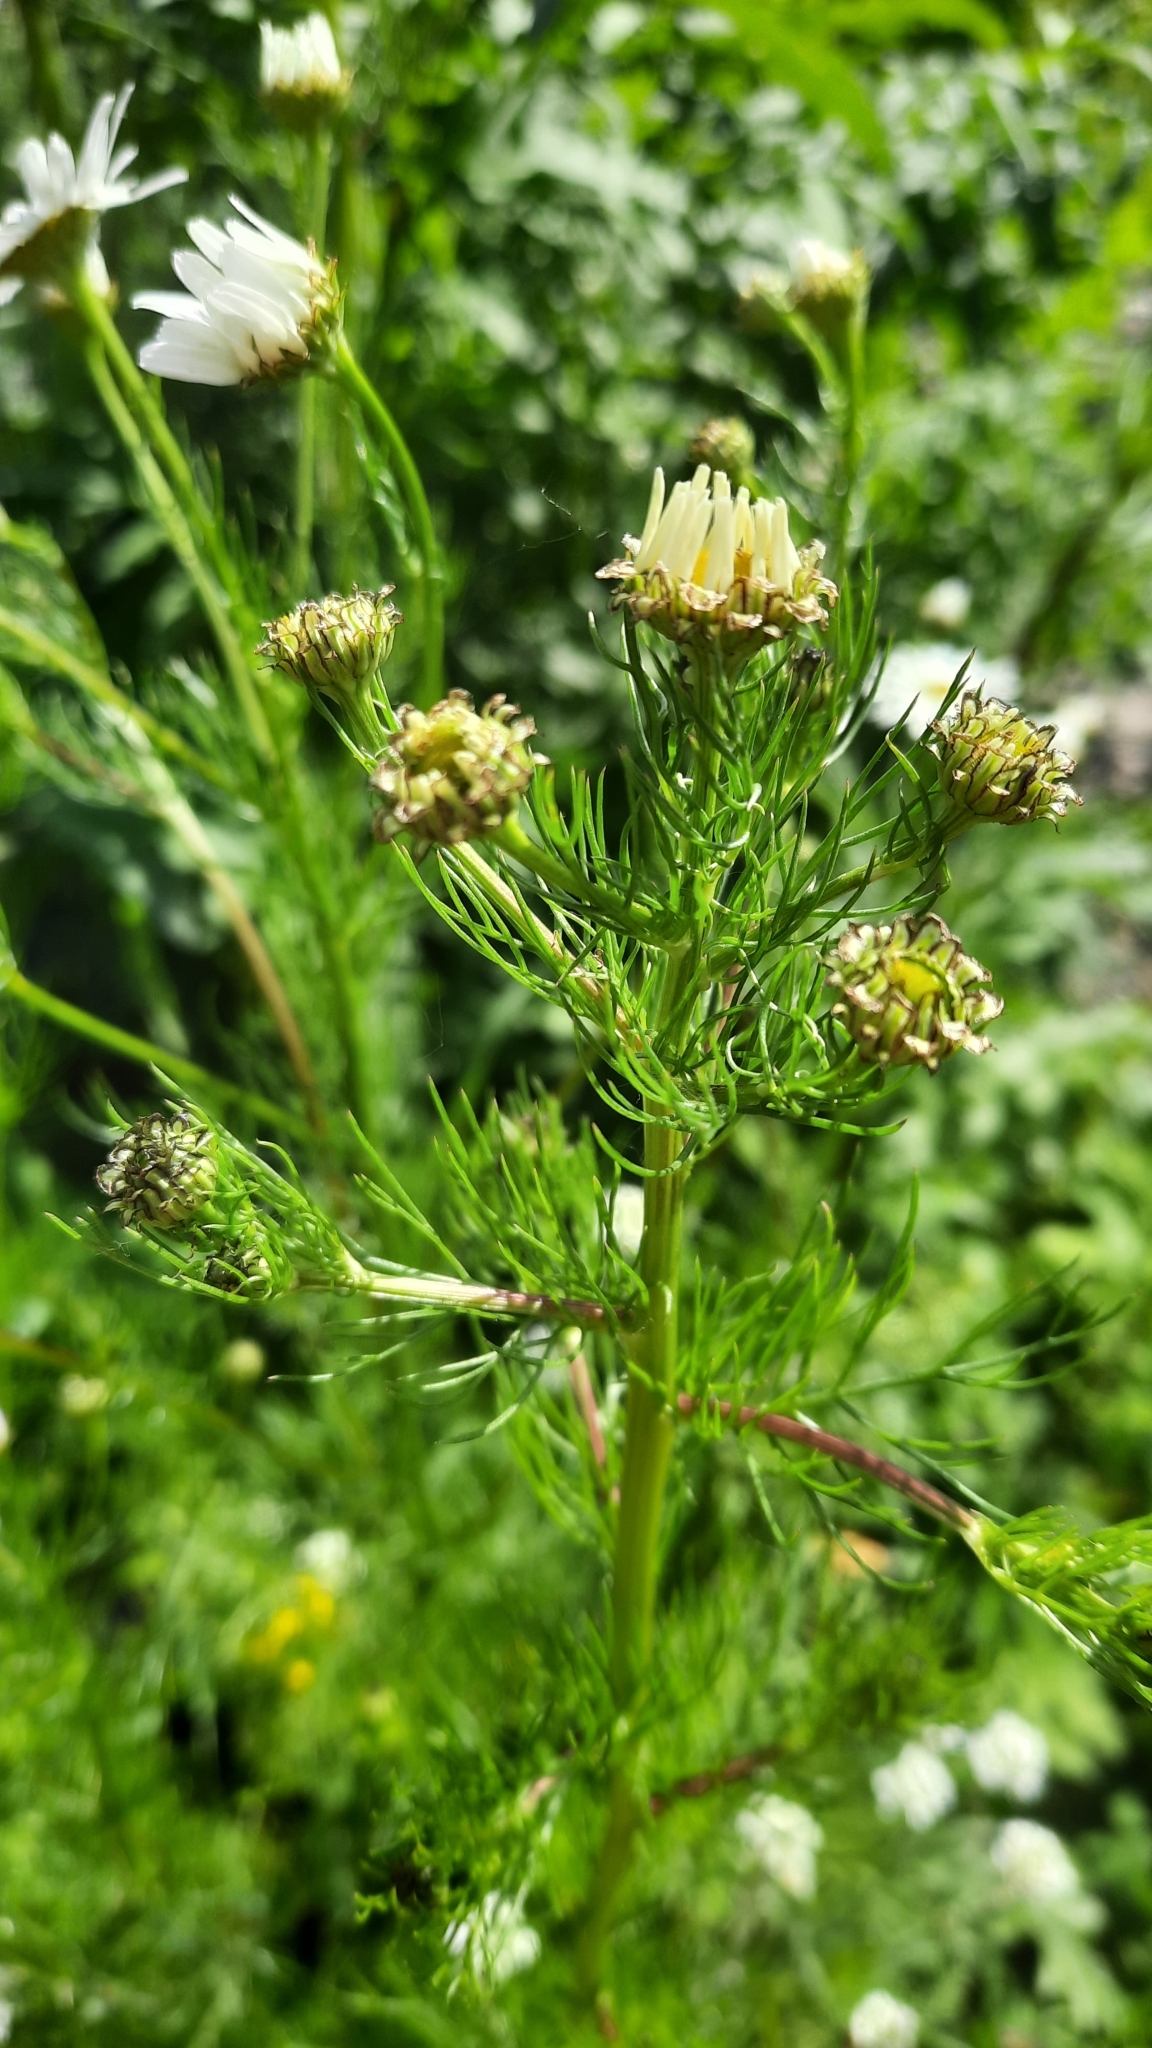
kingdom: Plantae
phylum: Tracheophyta
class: Magnoliopsida
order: Asterales
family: Asteraceae
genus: Tripleurospermum
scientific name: Tripleurospermum inodorum
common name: Scentless mayweed
